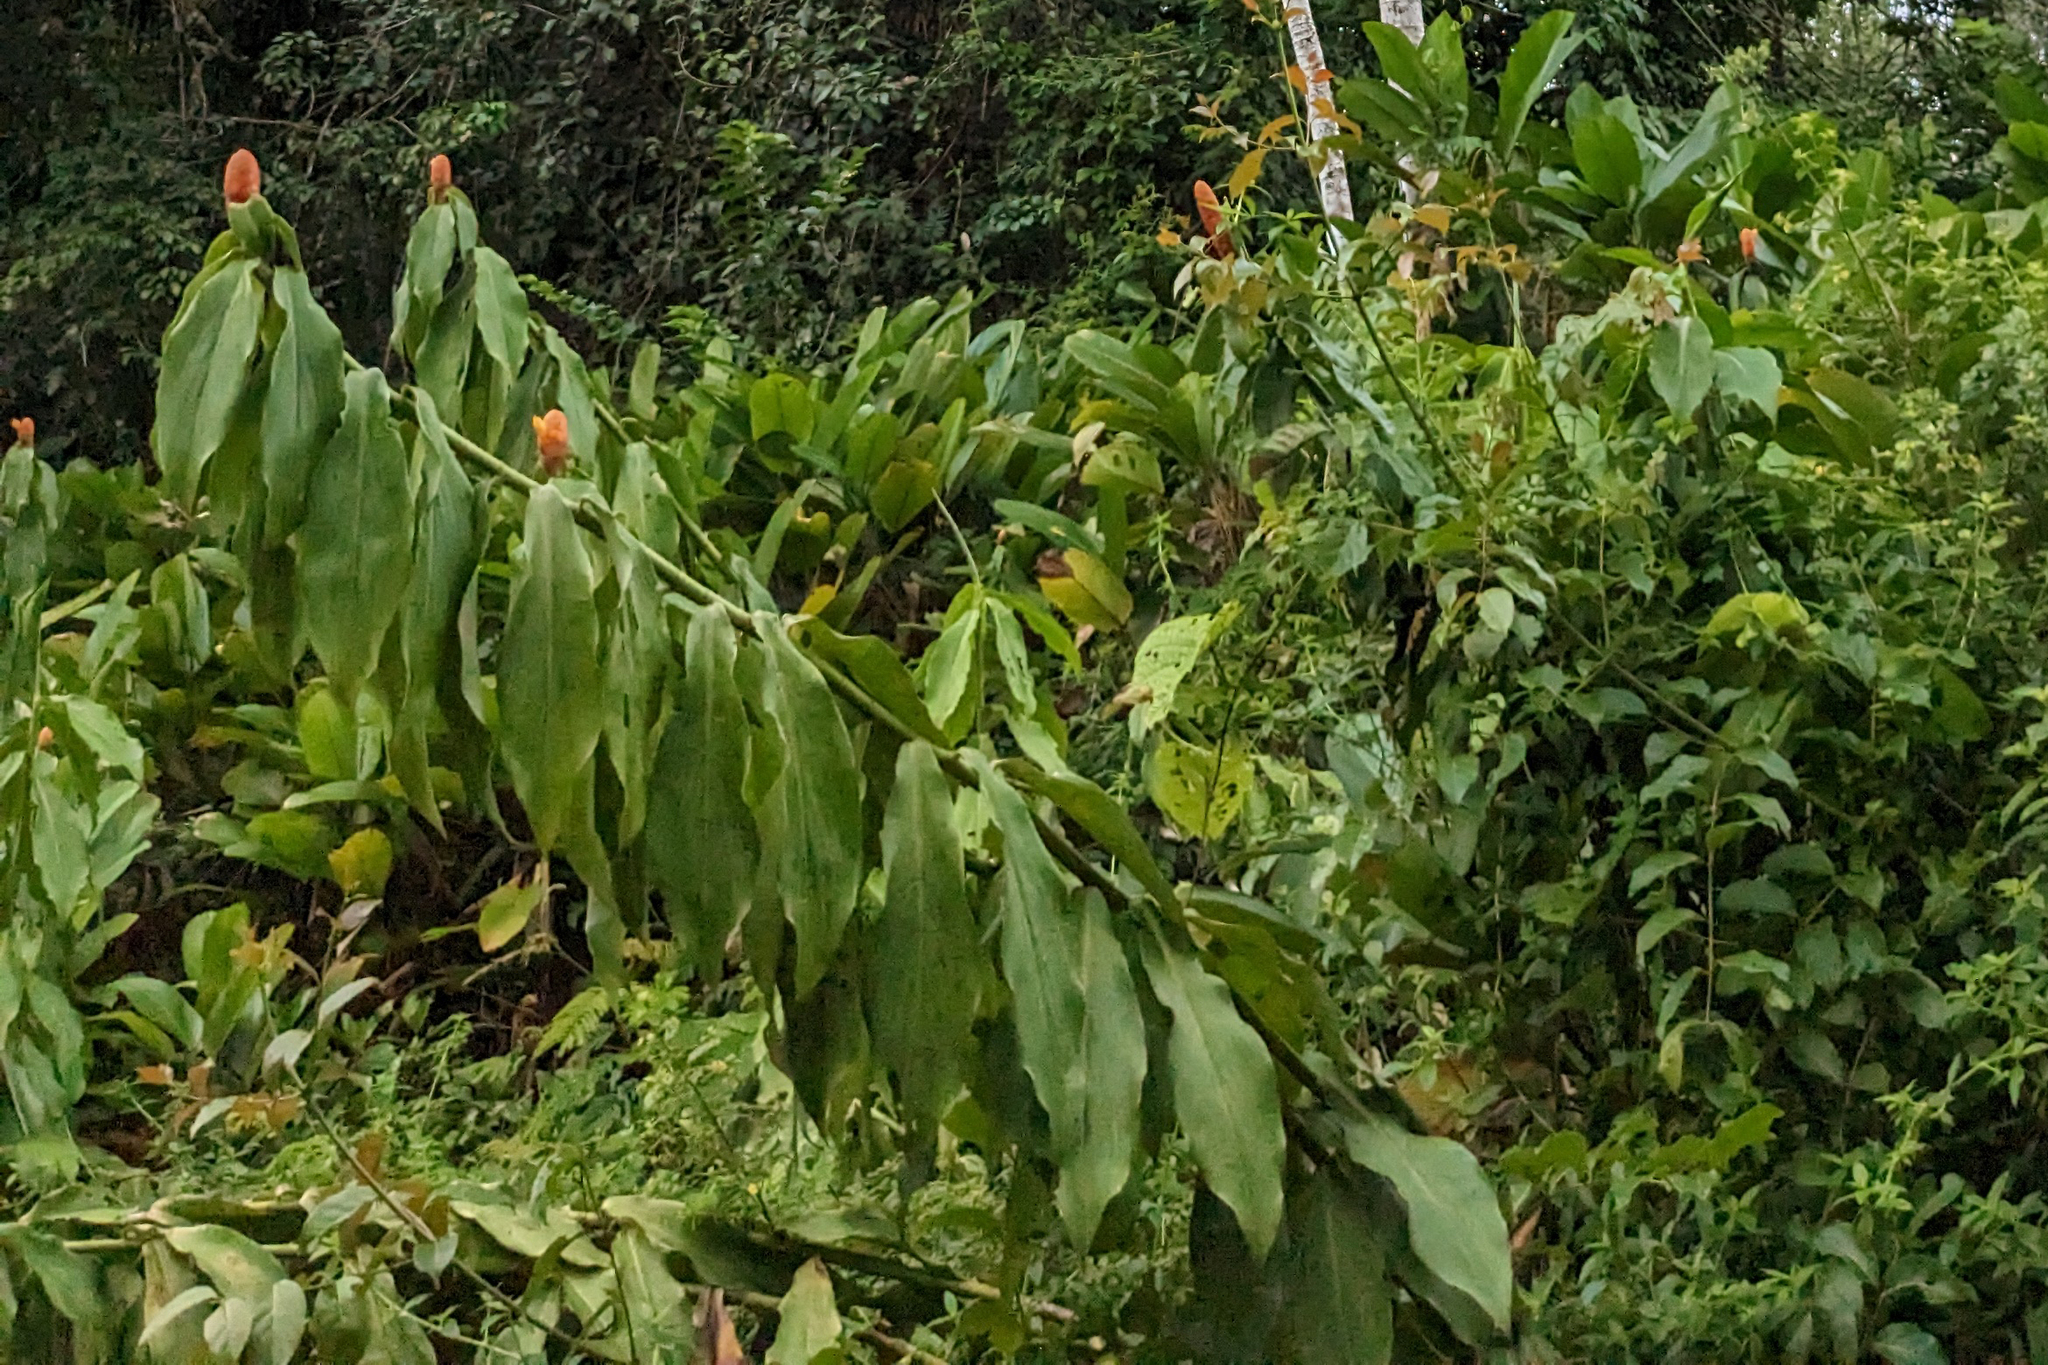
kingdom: Plantae
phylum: Tracheophyta
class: Liliopsida
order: Zingiberales
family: Costaceae
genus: Costus
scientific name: Costus scaber
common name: Spiral head ginger
